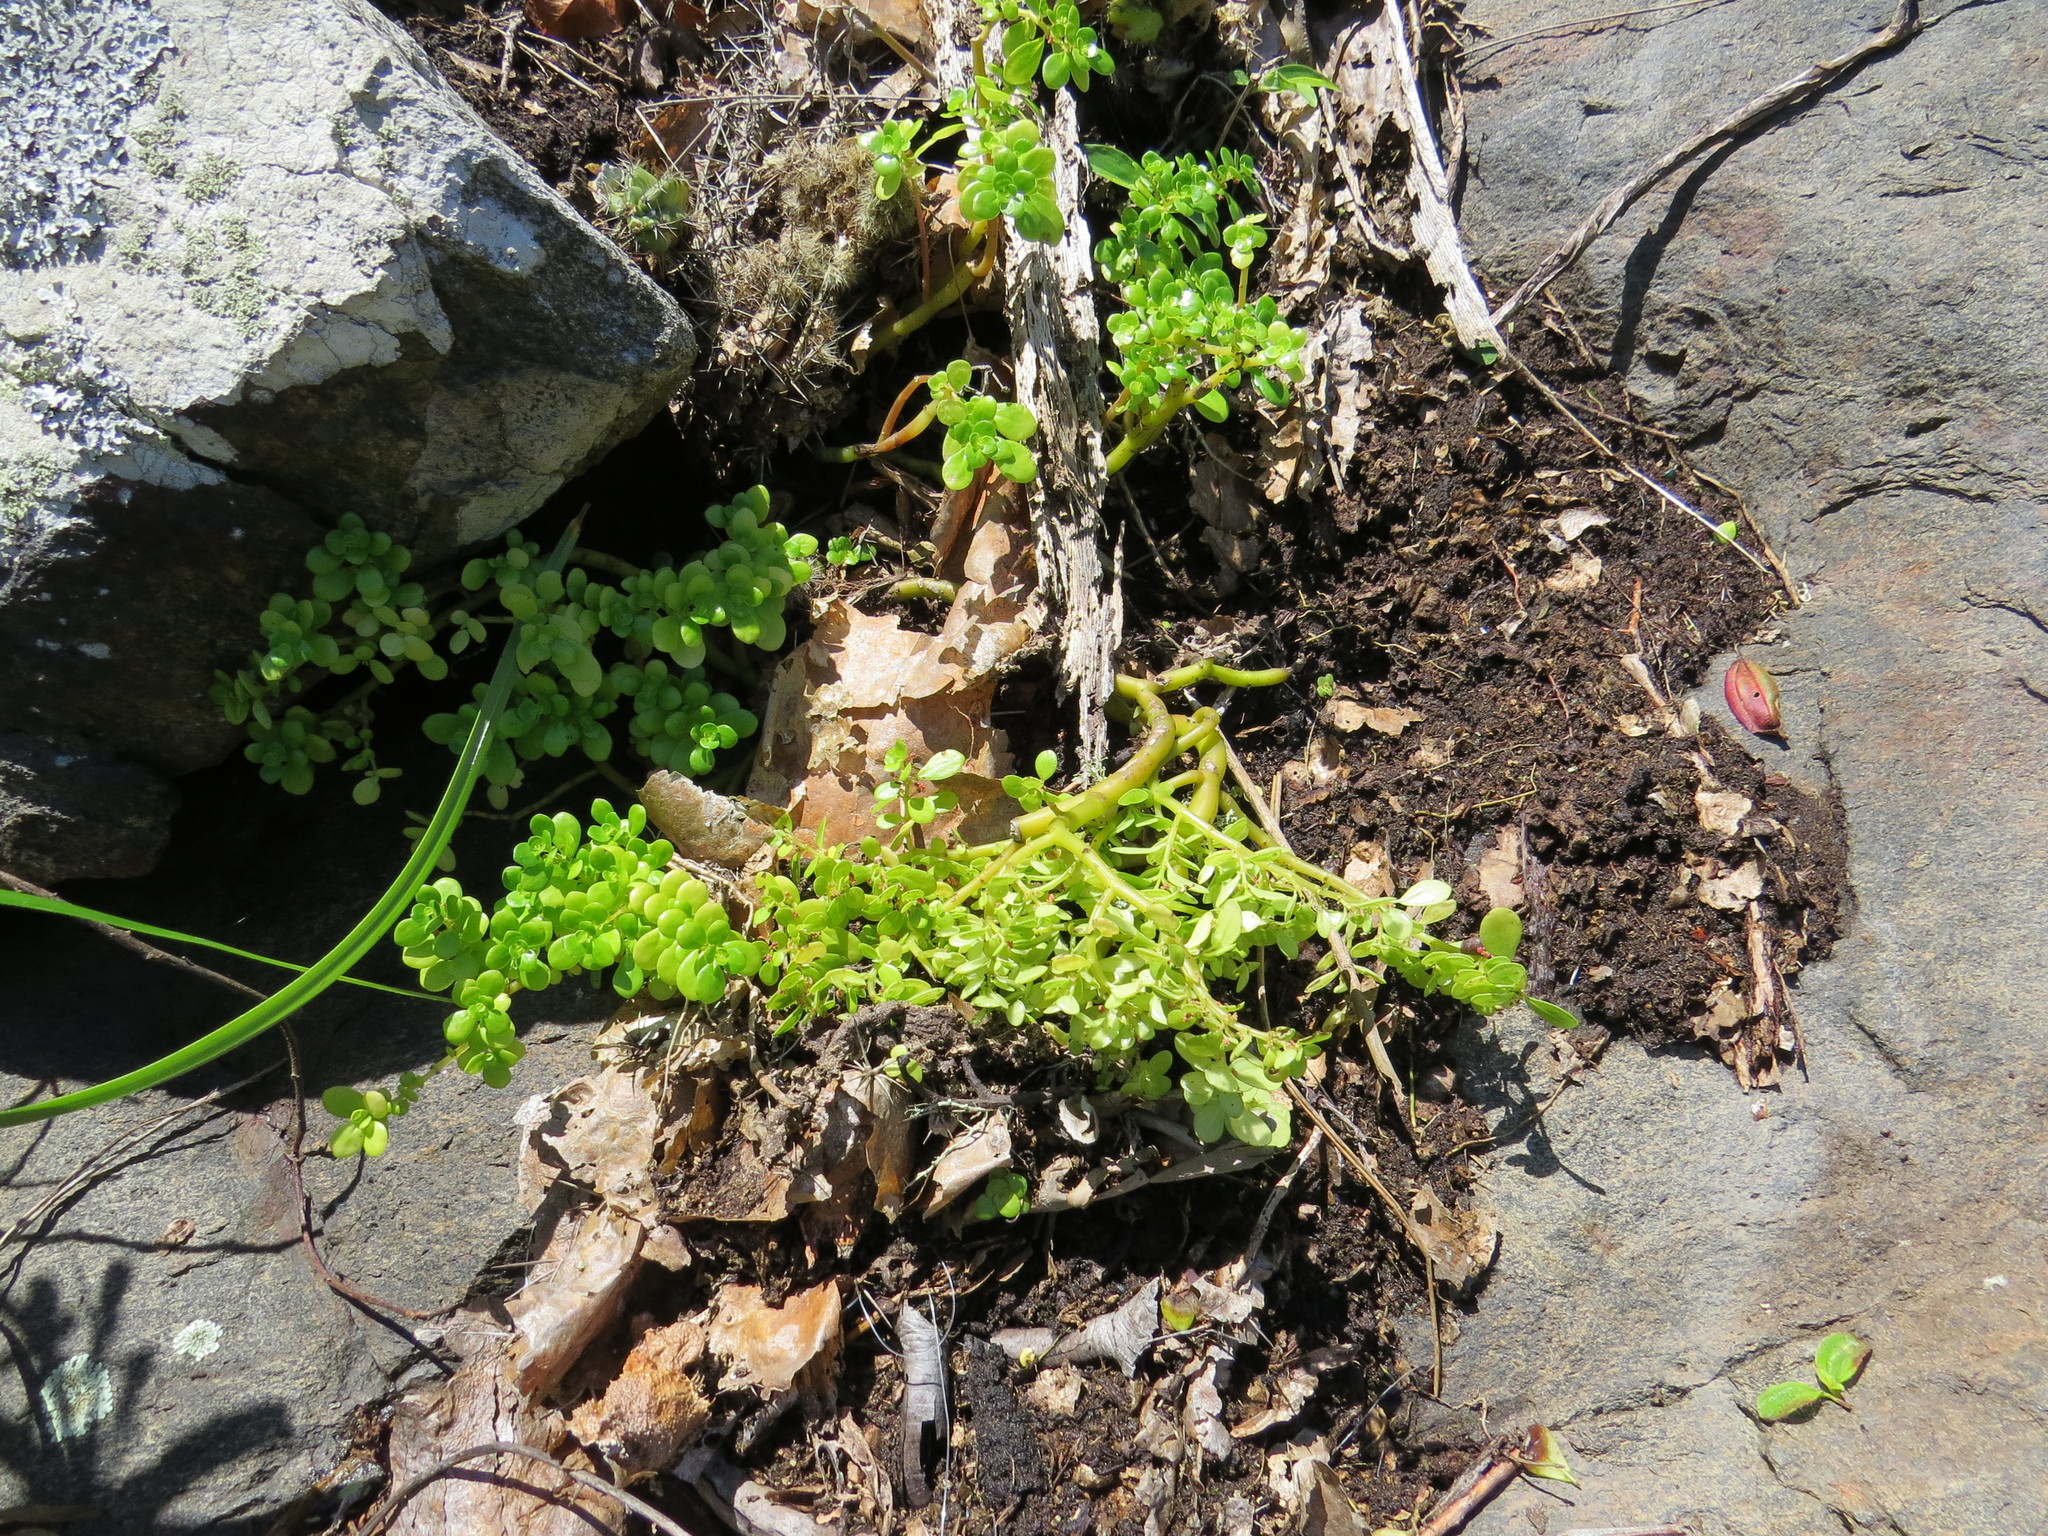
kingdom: Plantae
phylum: Tracheophyta
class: Magnoliopsida
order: Rosales
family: Urticaceae
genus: Pilea
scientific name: Pilea carautae
